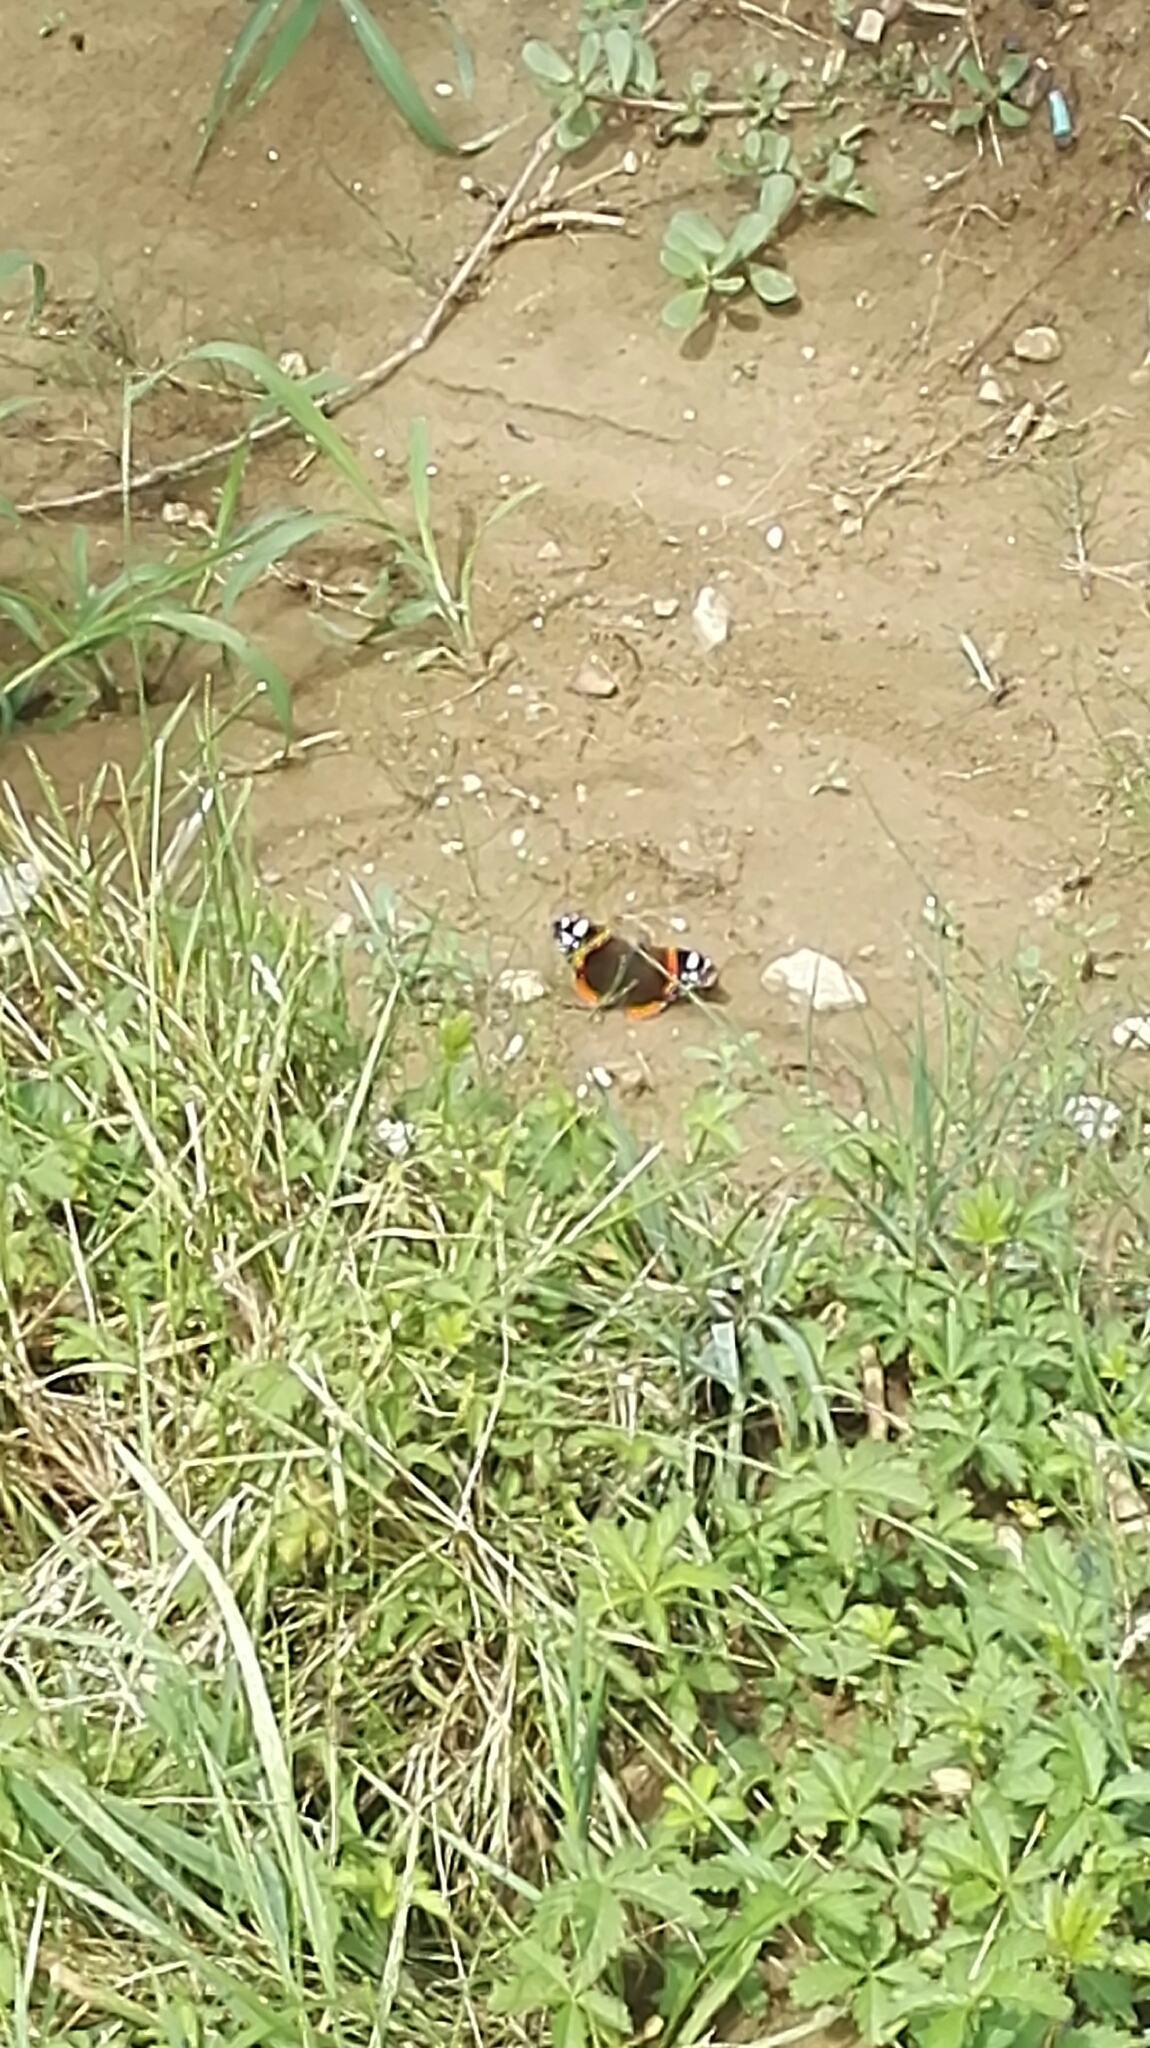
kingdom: Animalia
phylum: Arthropoda
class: Insecta
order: Lepidoptera
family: Nymphalidae
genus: Vanessa
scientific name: Vanessa atalanta
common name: Red admiral
